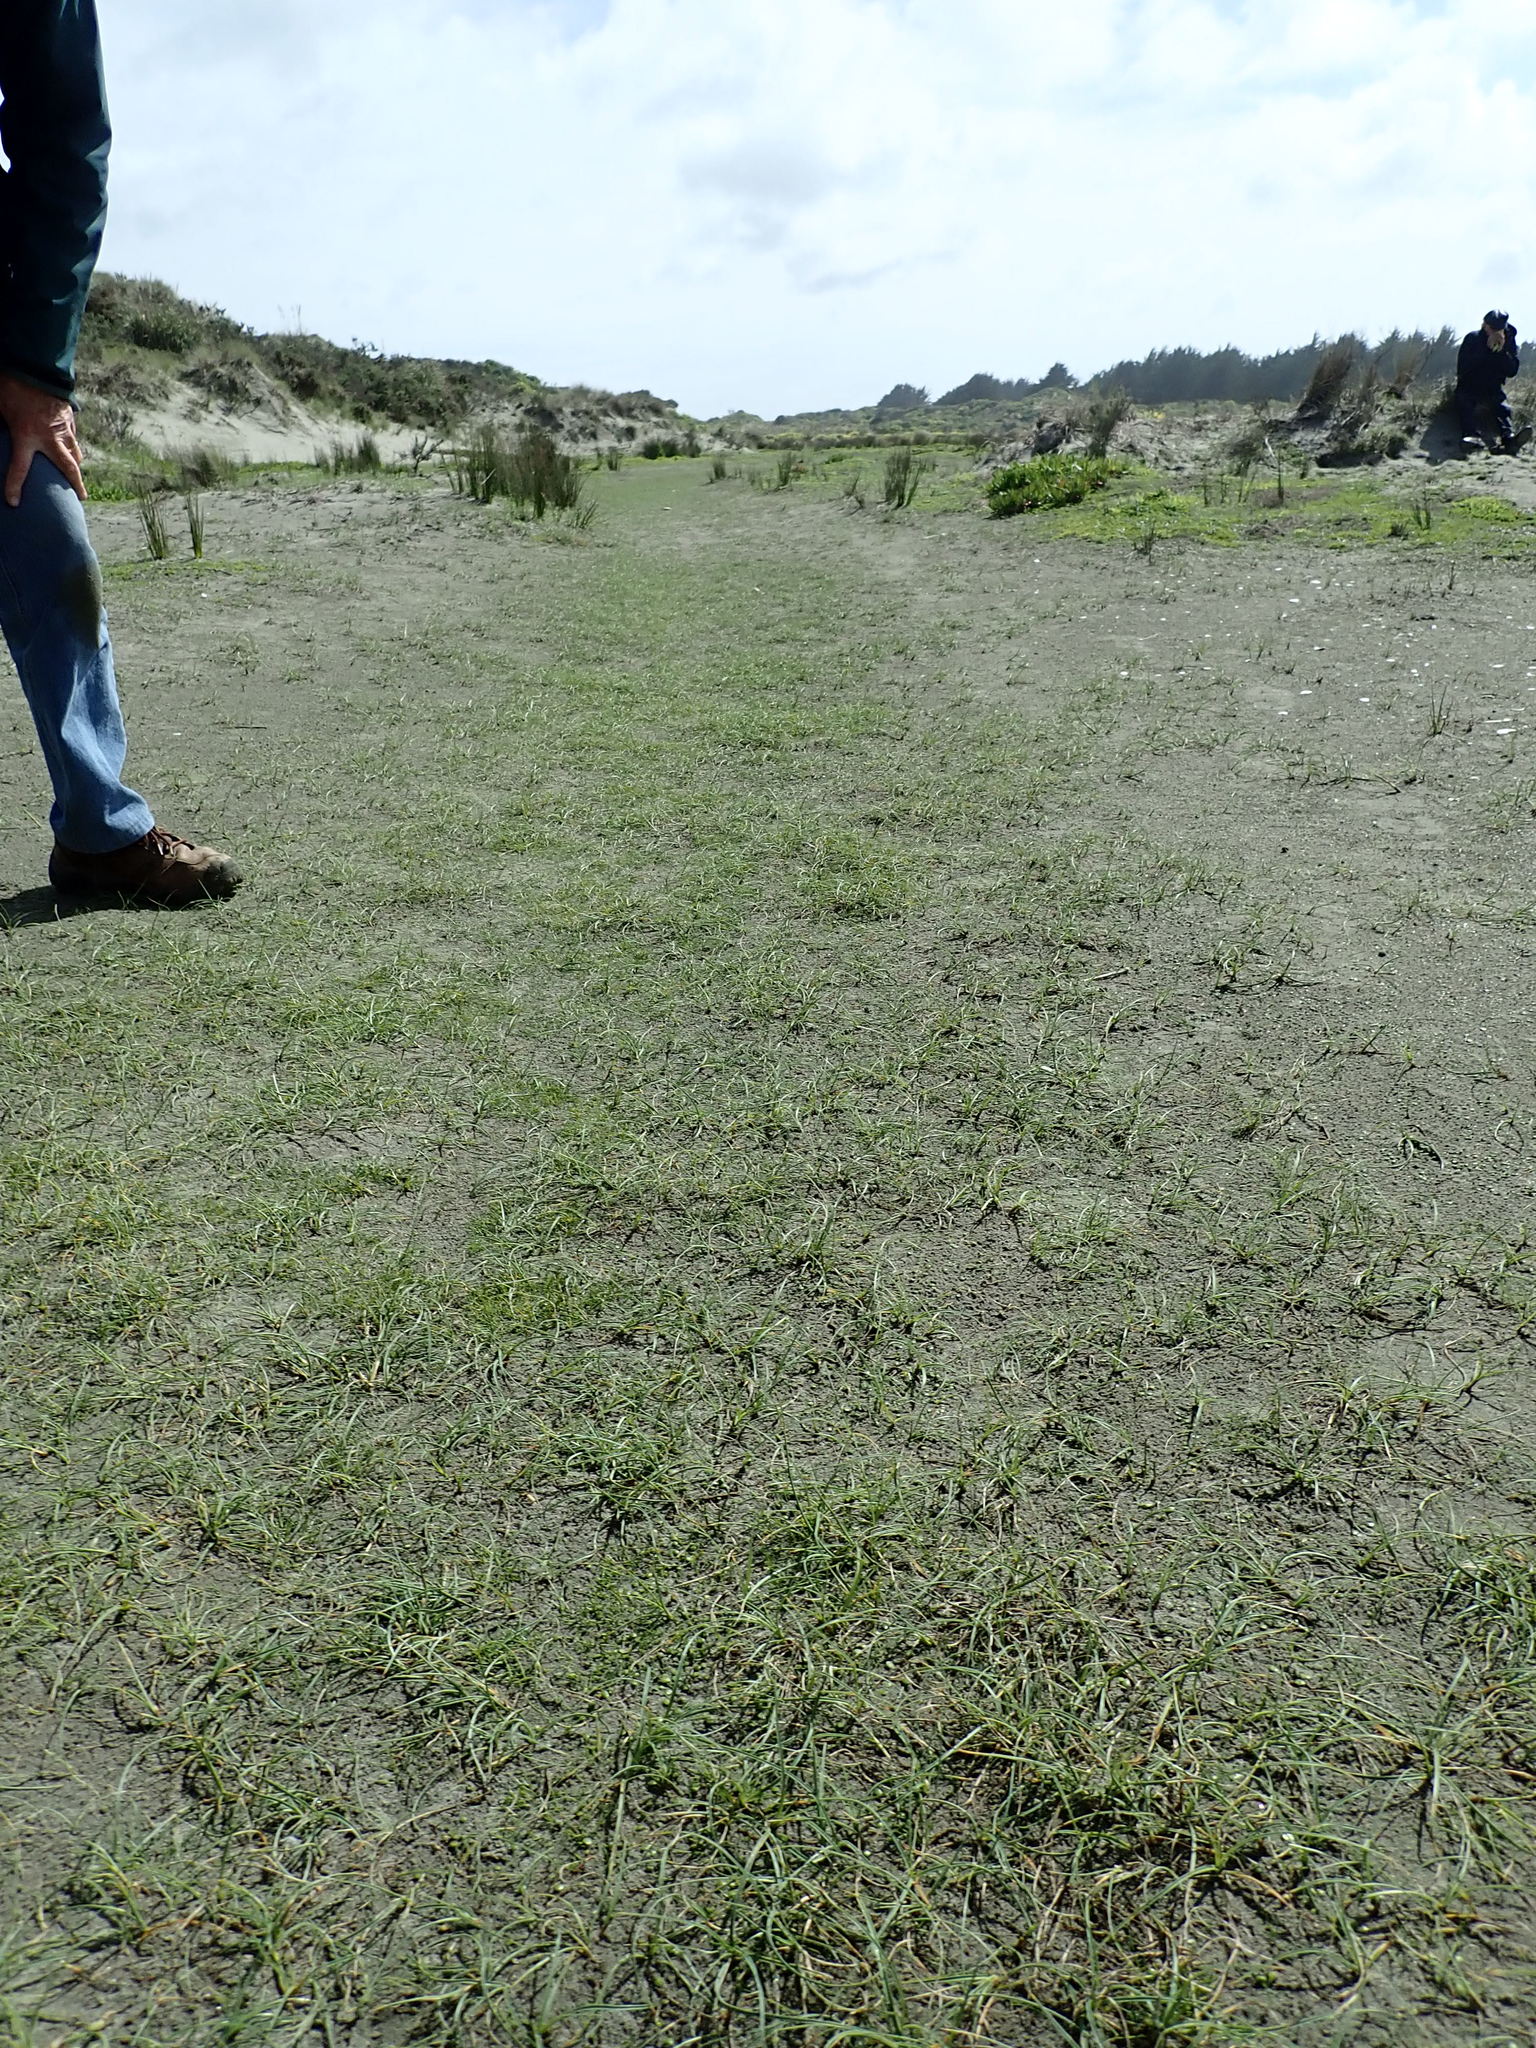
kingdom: Plantae
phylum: Tracheophyta
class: Liliopsida
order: Poales
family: Cyperaceae
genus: Carex
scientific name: Carex pumila
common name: Dwarf sedge
